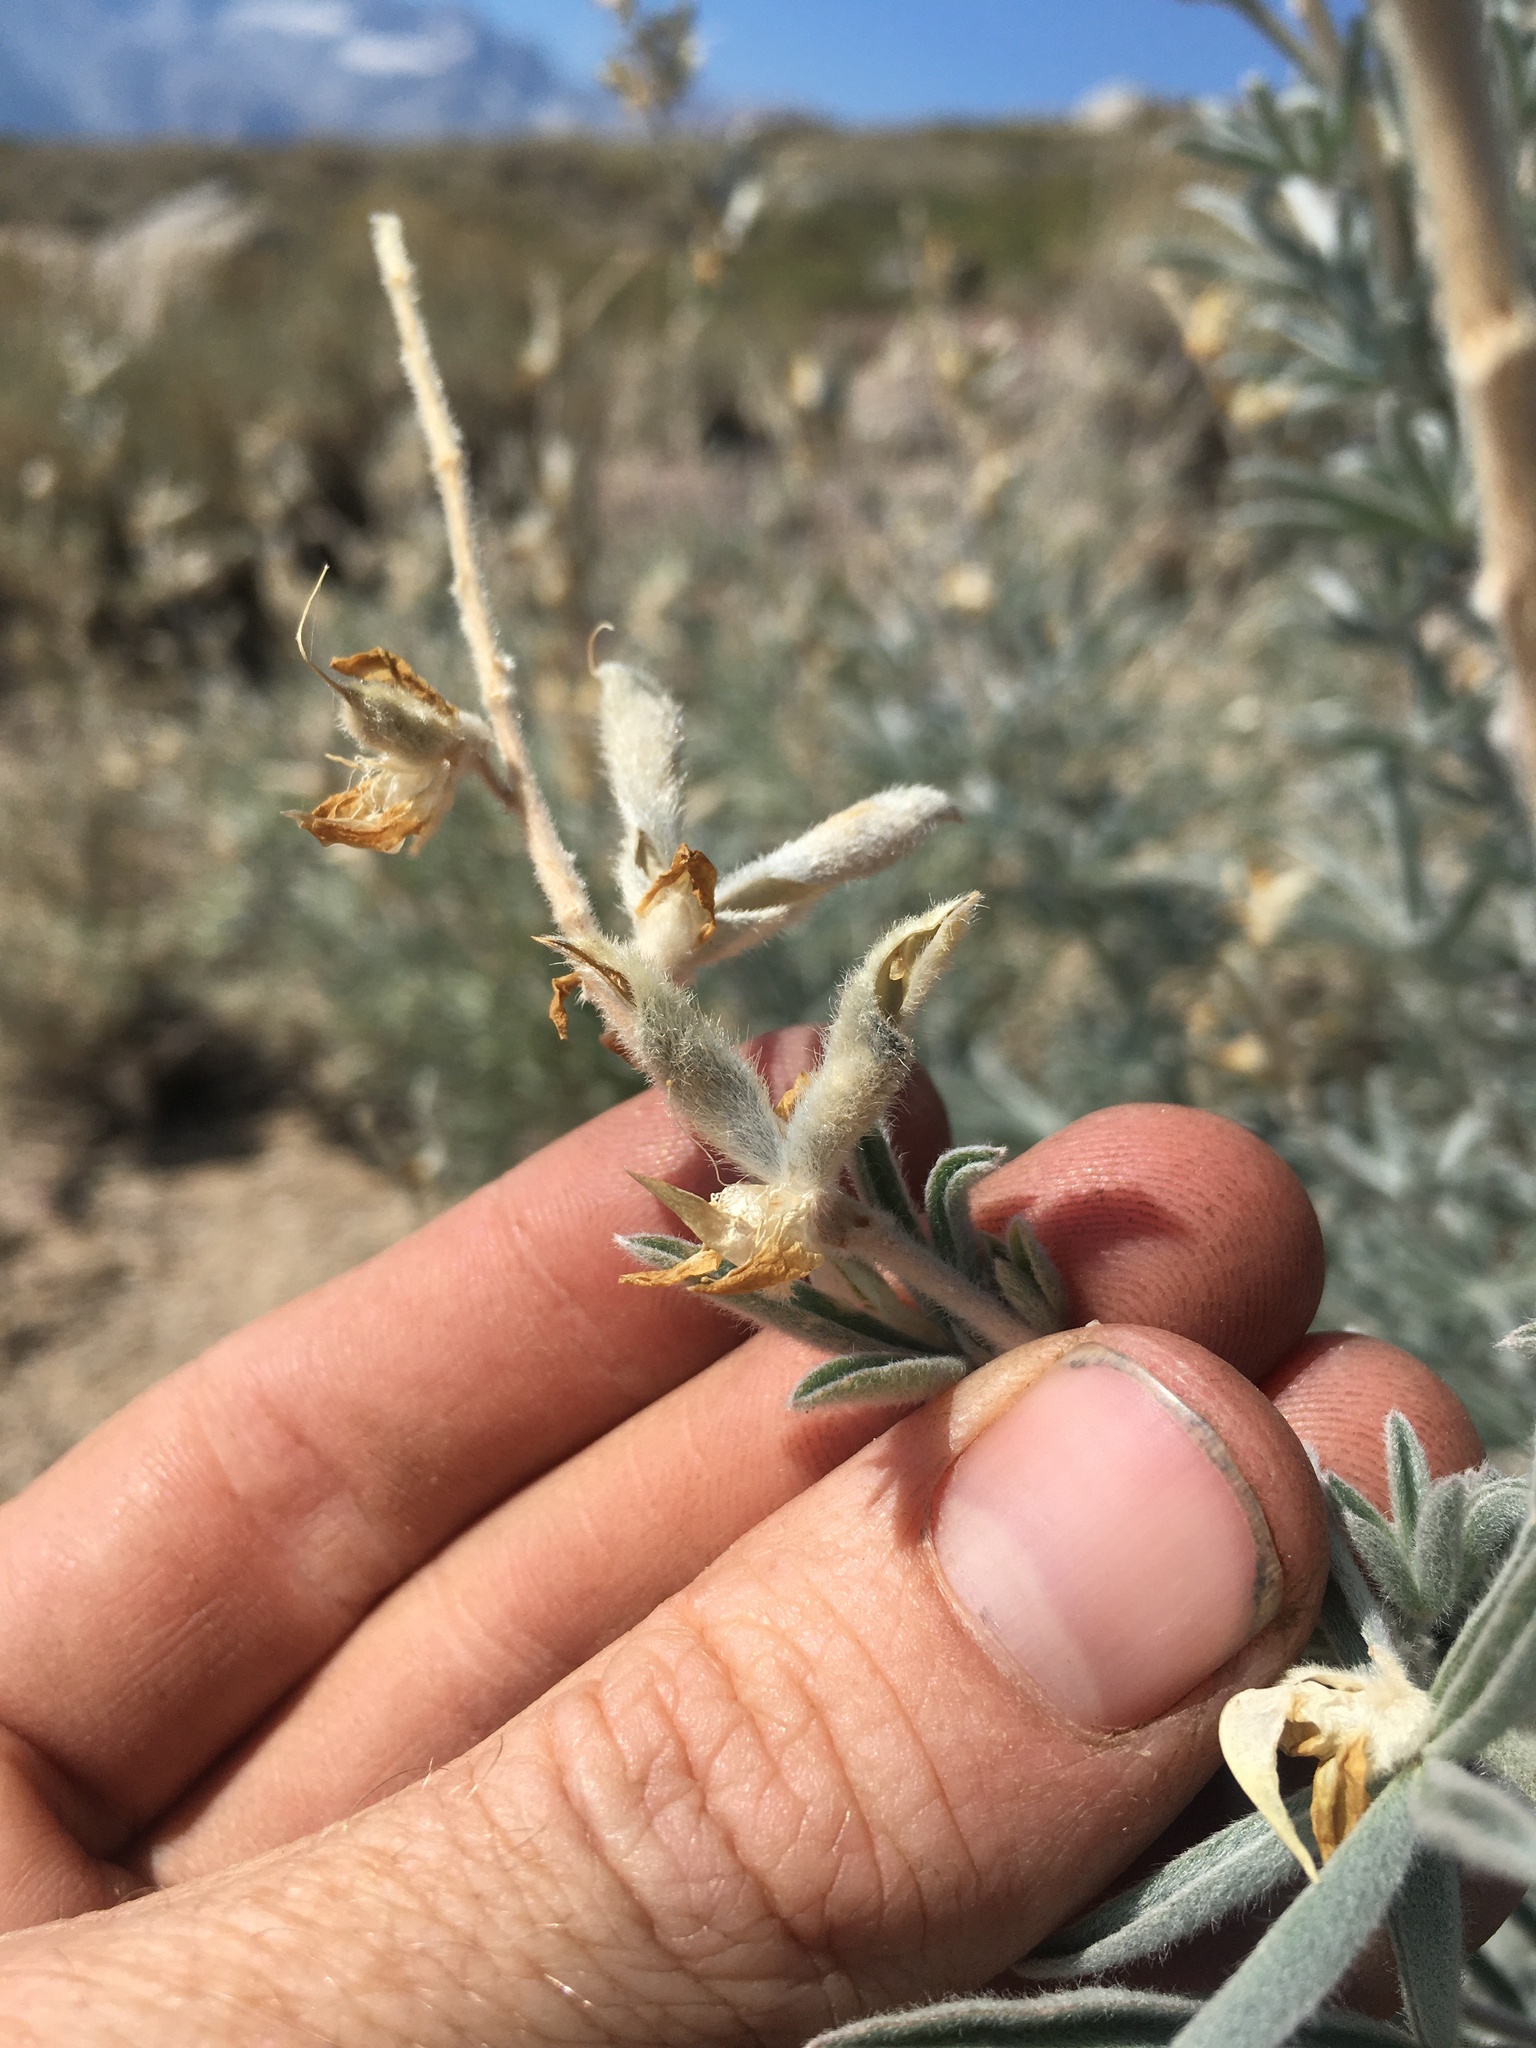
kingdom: Plantae
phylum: Tracheophyta
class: Magnoliopsida
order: Fabales
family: Fabaceae
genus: Lupinus
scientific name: Lupinus padre-crowleyi
